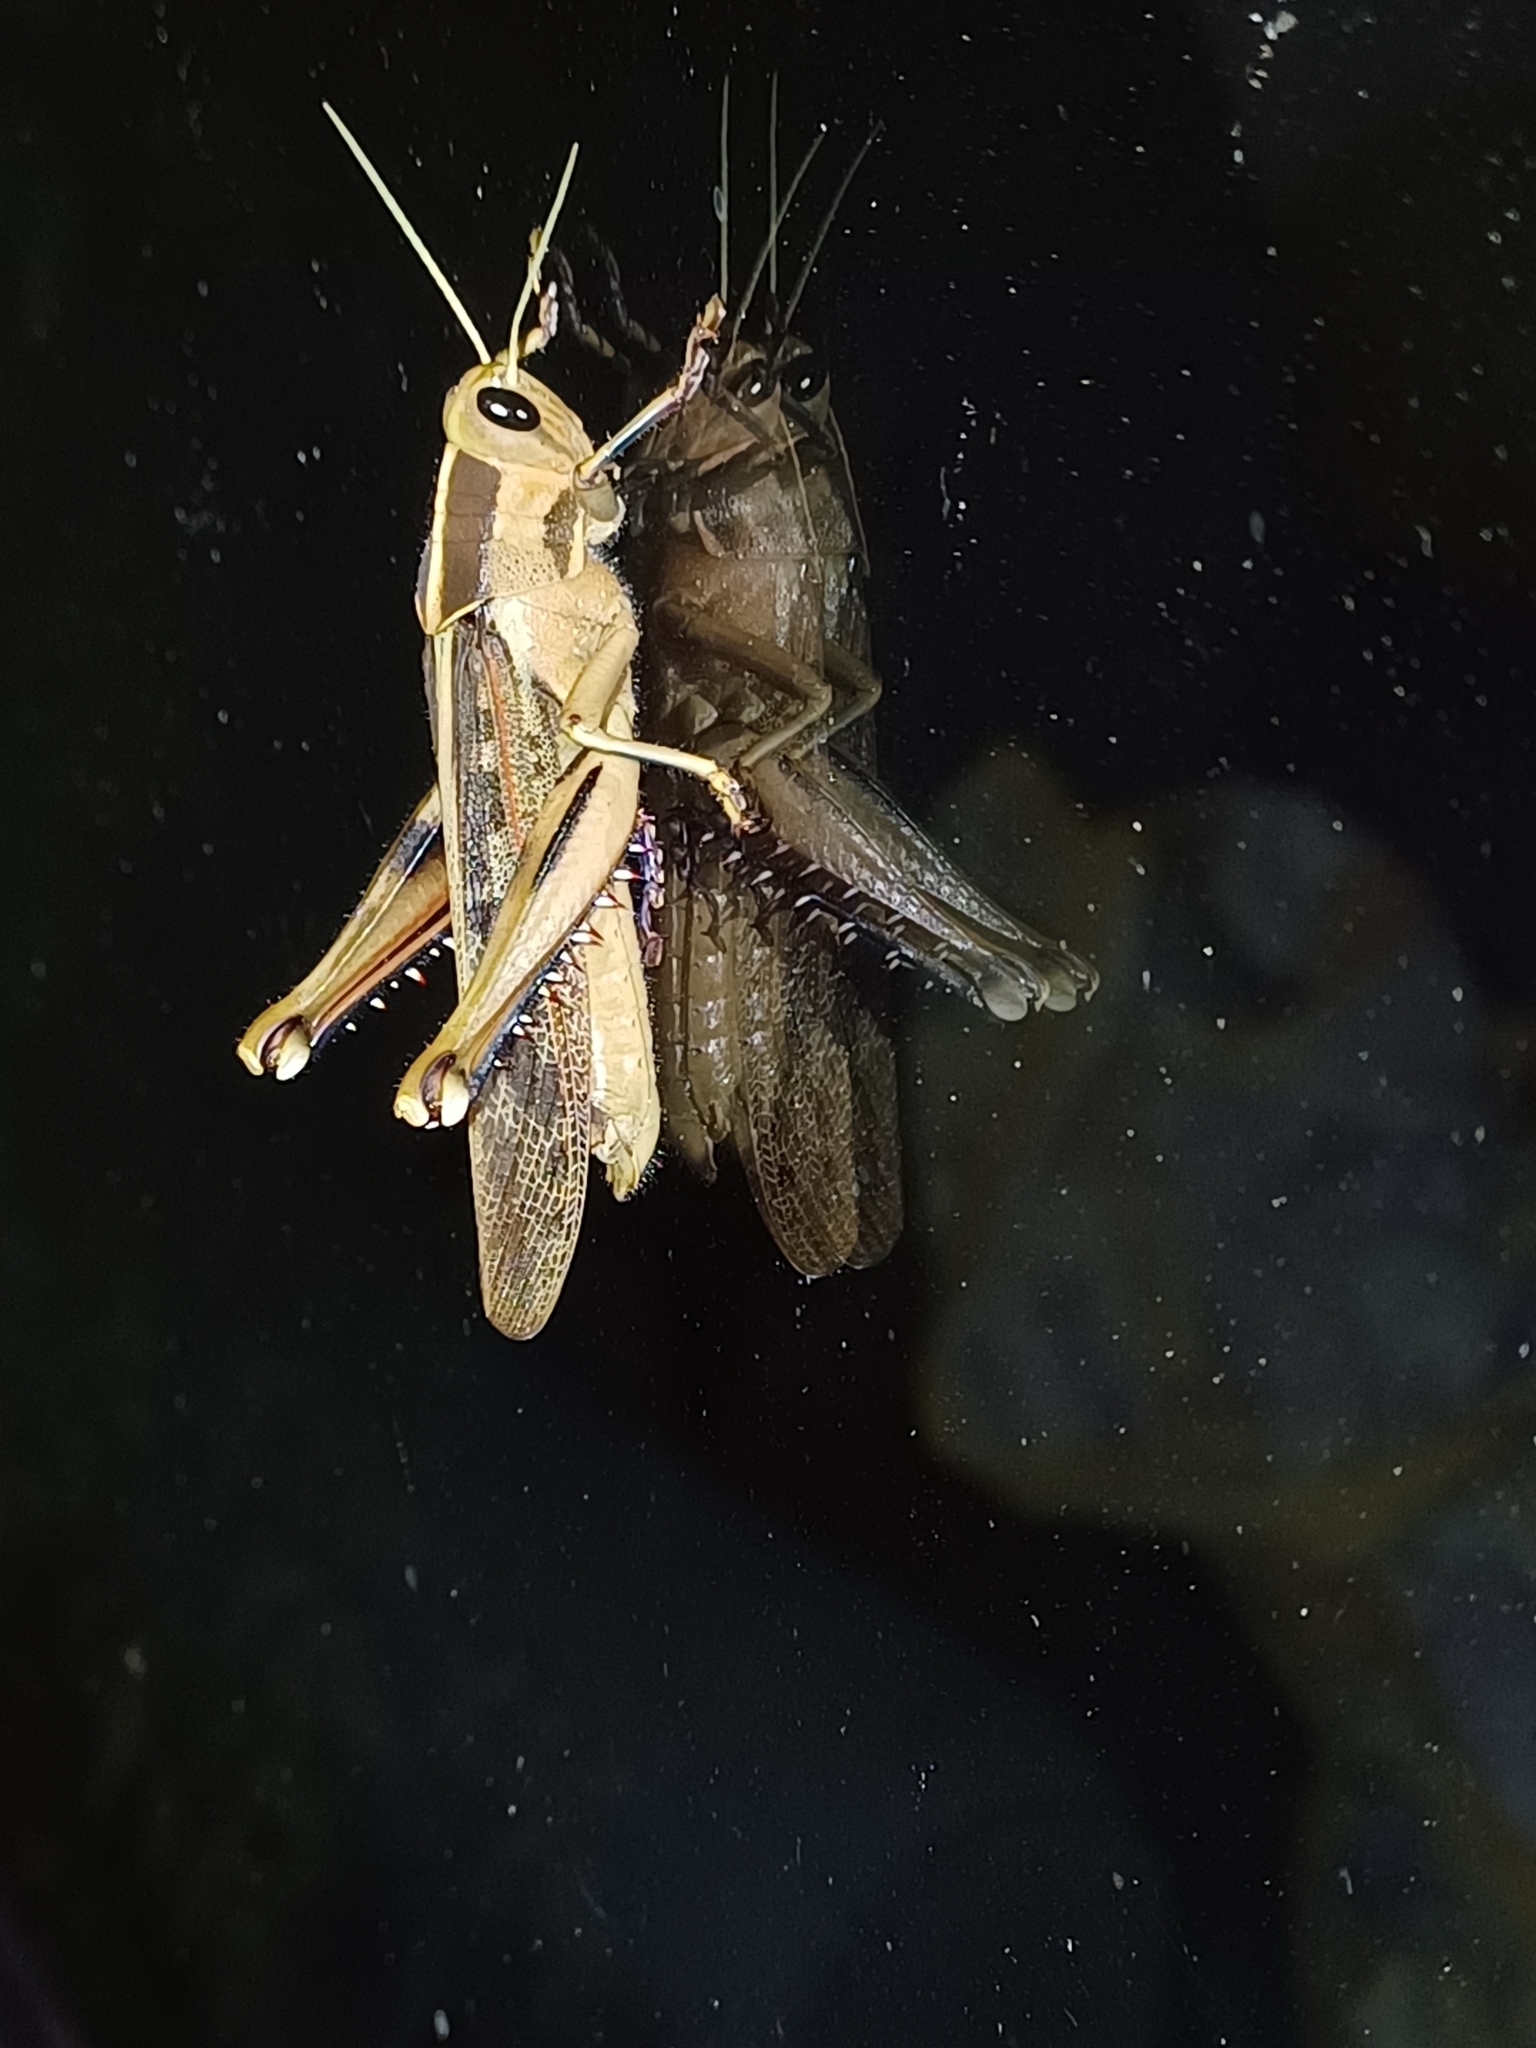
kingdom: Animalia
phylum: Arthropoda
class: Insecta
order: Orthoptera
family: Acrididae
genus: Acanthacris
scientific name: Acanthacris ruficornis
